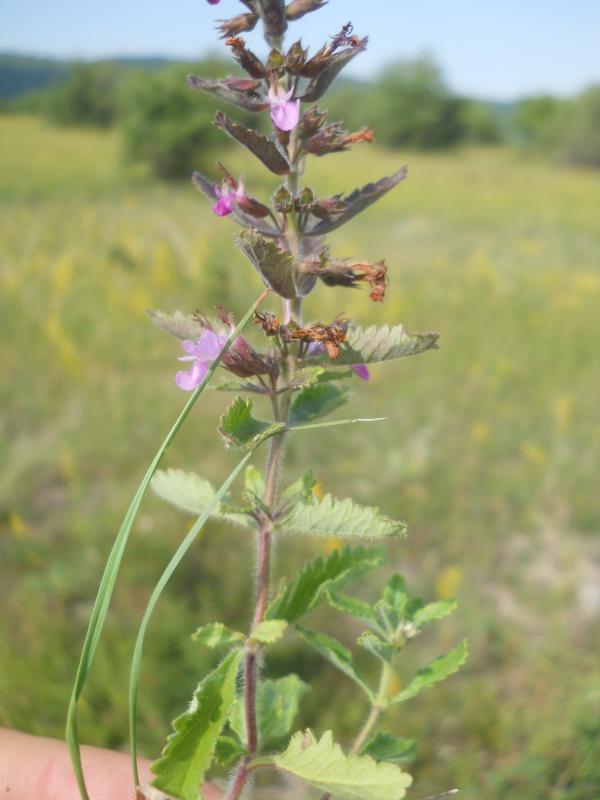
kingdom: Plantae
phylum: Tracheophyta
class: Magnoliopsida
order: Lamiales
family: Lamiaceae
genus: Teucrium
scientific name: Teucrium chamaedrys
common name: Wall germander
